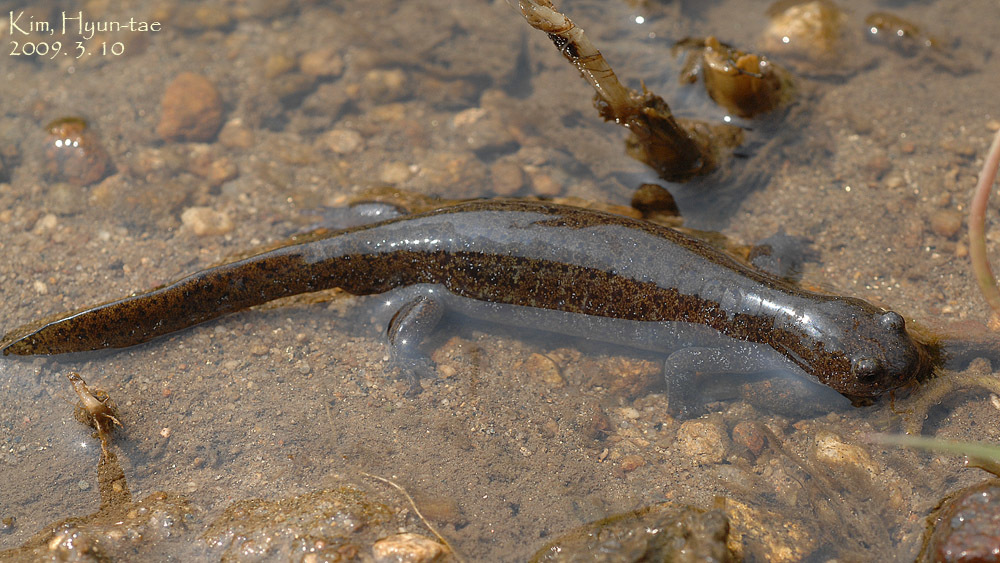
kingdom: Animalia
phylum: Chordata
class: Amphibia
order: Caudata
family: Hynobiidae
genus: Hynobius
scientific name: Hynobius leechii
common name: Gensan salamander
